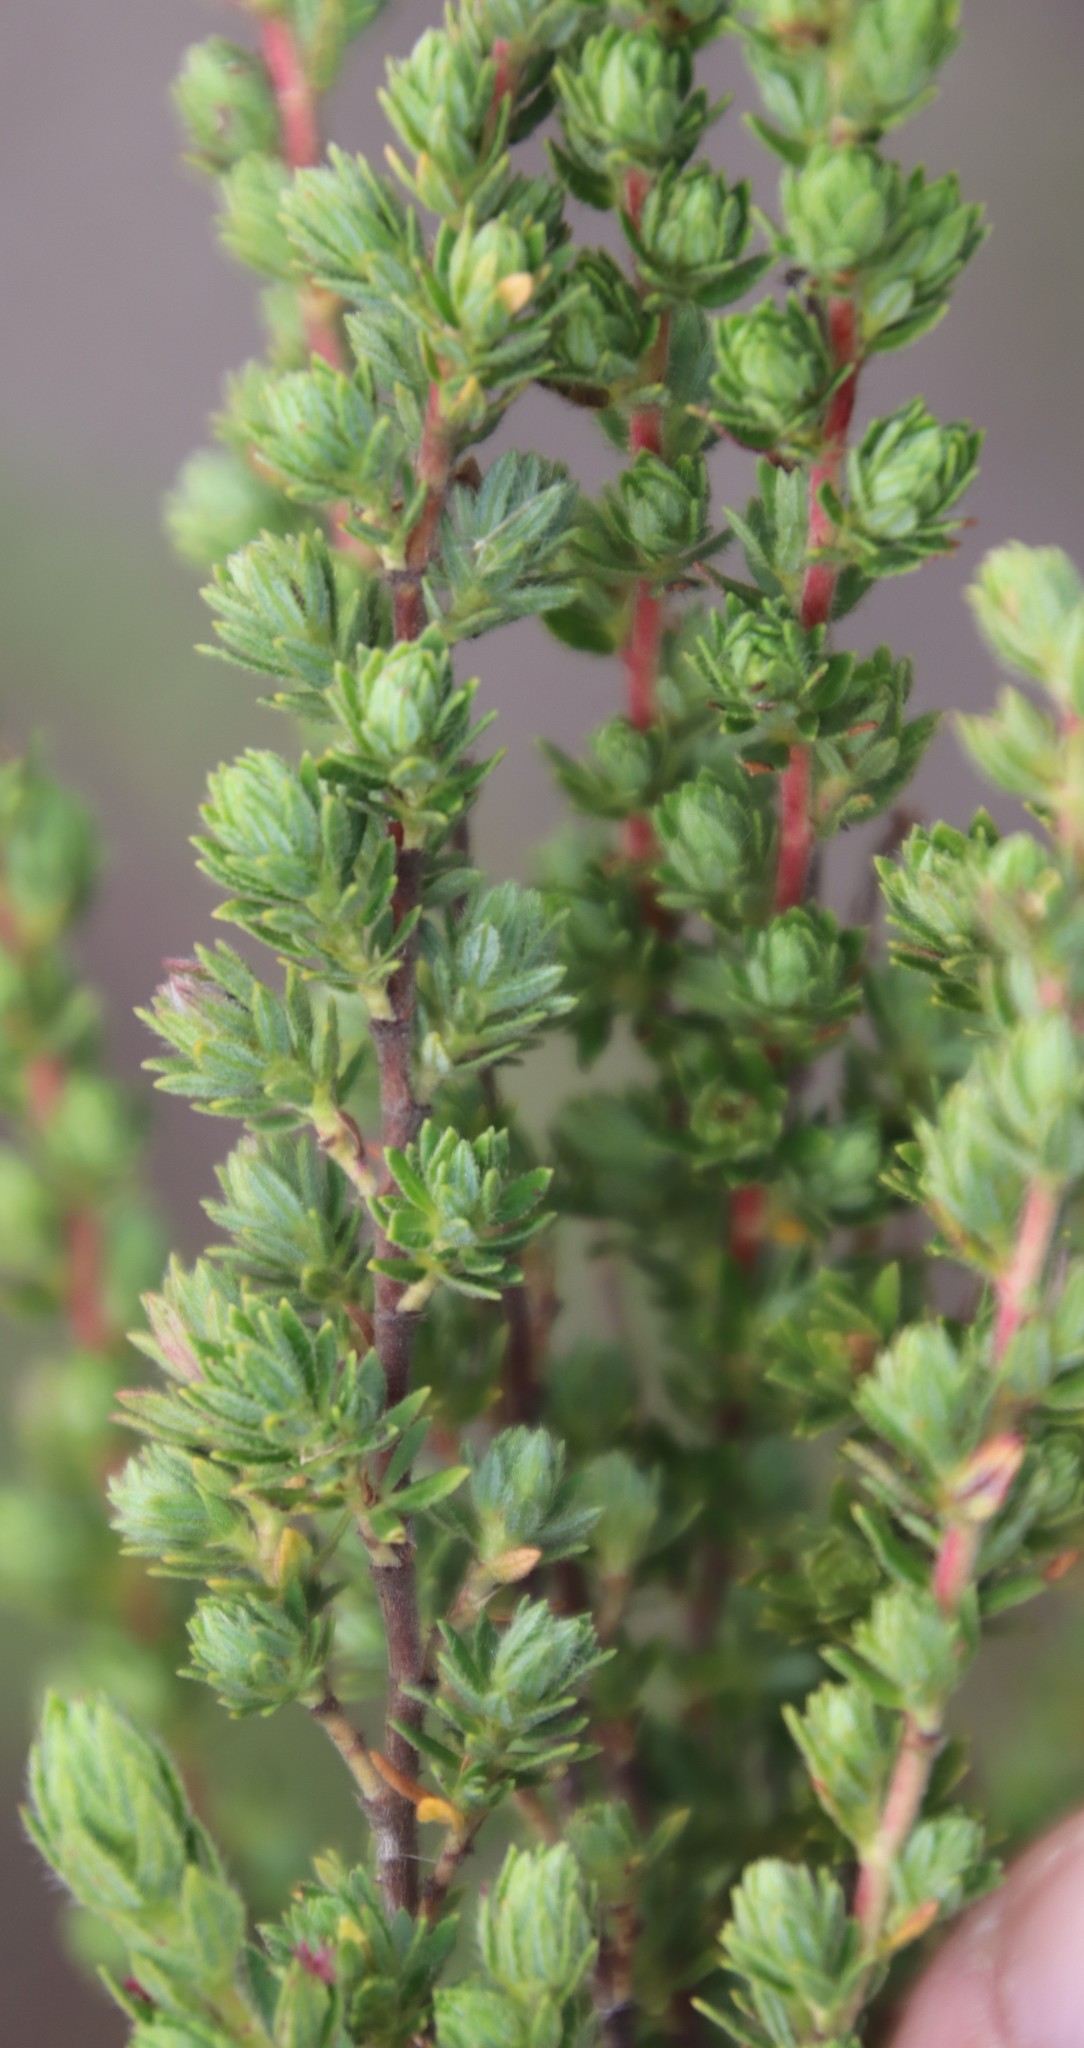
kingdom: Plantae
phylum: Tracheophyta
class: Magnoliopsida
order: Rosales
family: Rosaceae
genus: Cliffortia
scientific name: Cliffortia polygonifolia
